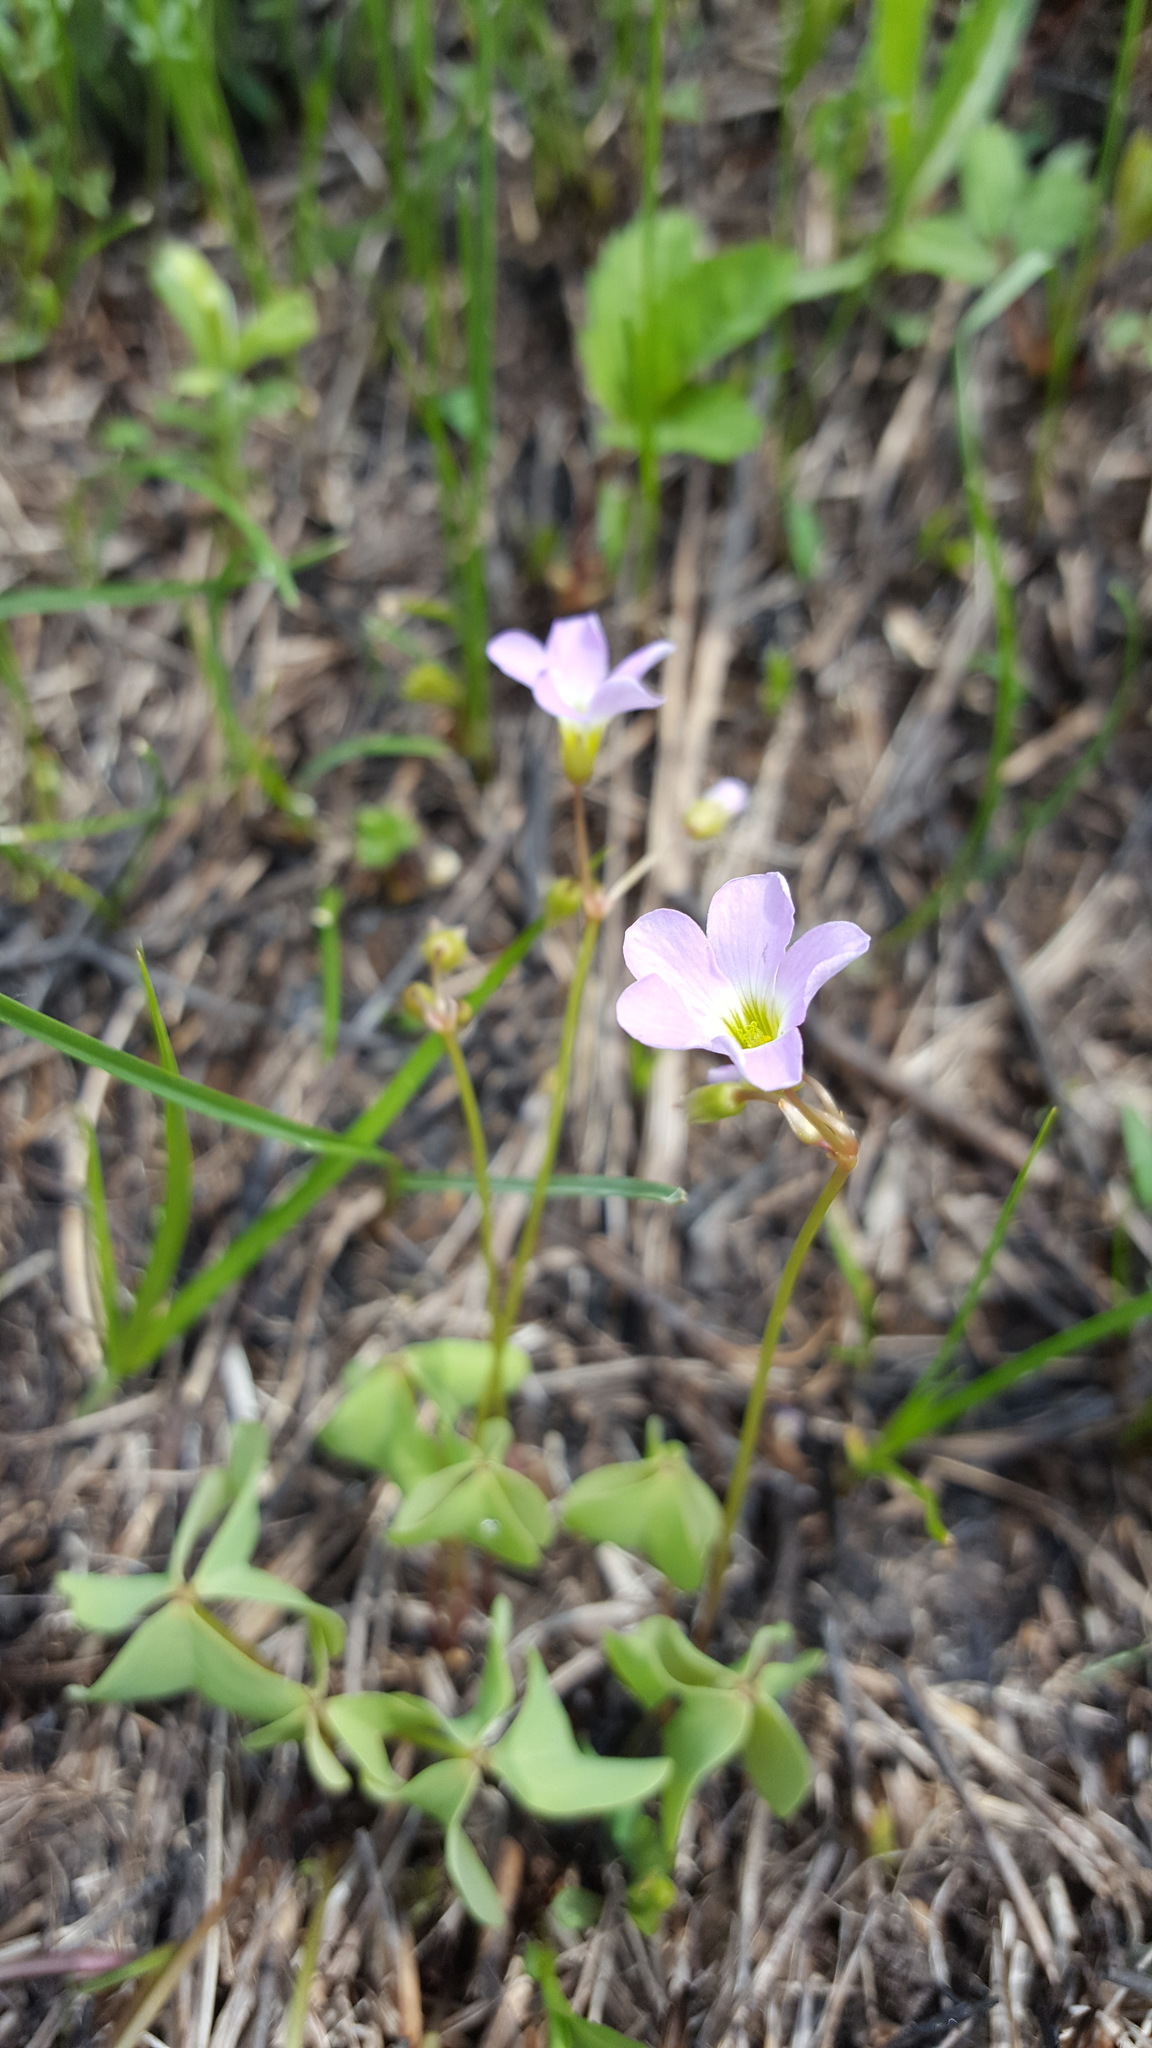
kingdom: Plantae
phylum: Tracheophyta
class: Magnoliopsida
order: Oxalidales
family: Oxalidaceae
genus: Oxalis
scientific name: Oxalis violacea
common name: Violet wood-sorrel
